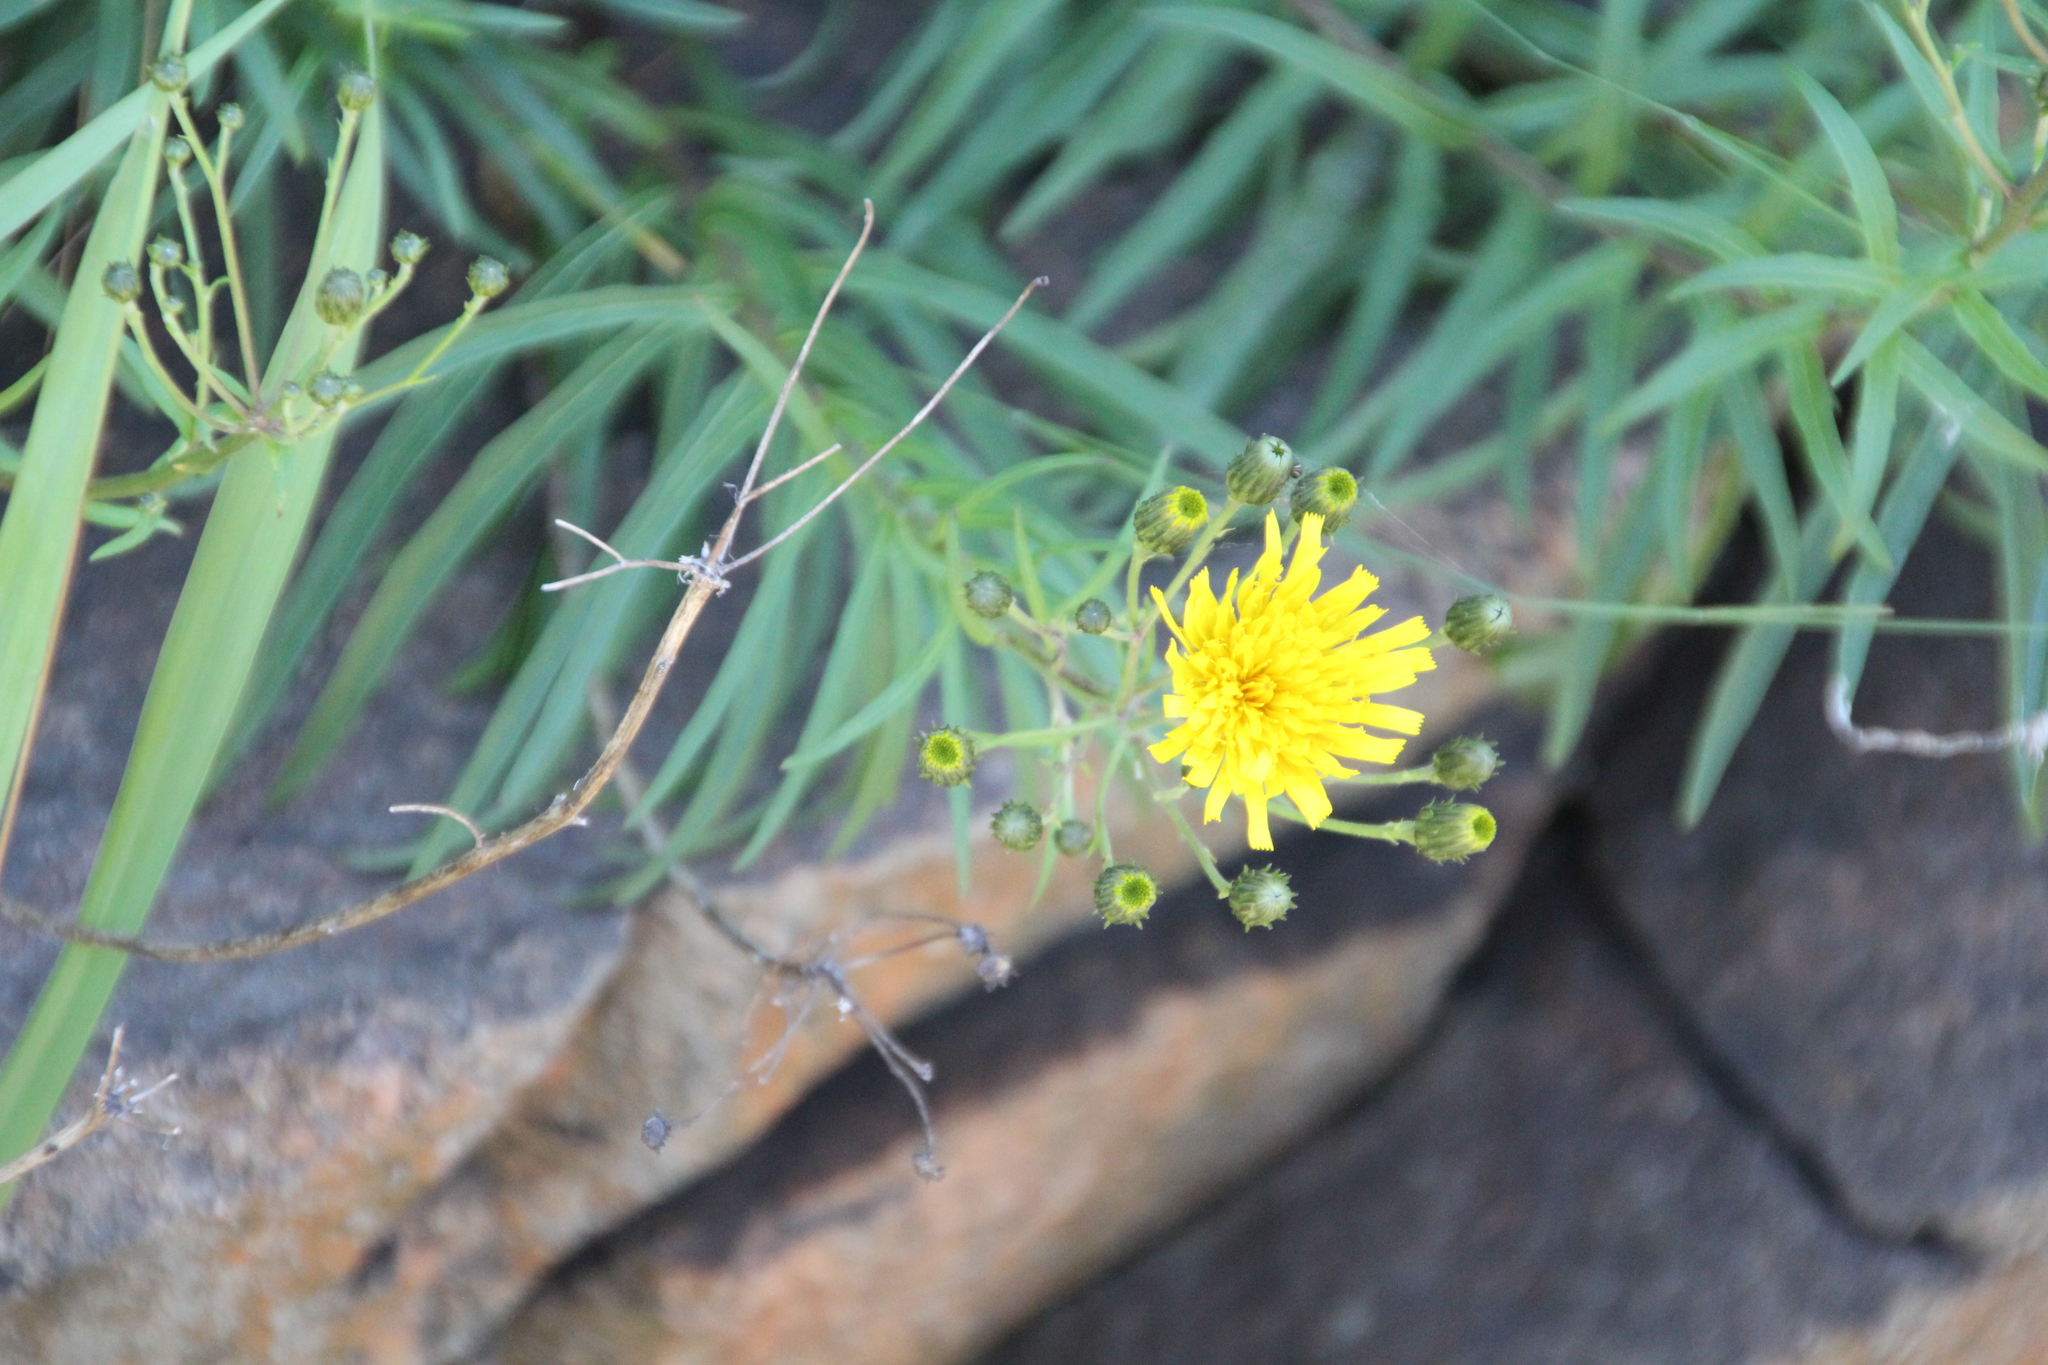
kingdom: Plantae
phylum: Tracheophyta
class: Magnoliopsida
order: Asterales
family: Asteraceae
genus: Hieracium
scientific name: Hieracium umbellatum
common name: Northern hawkweed
